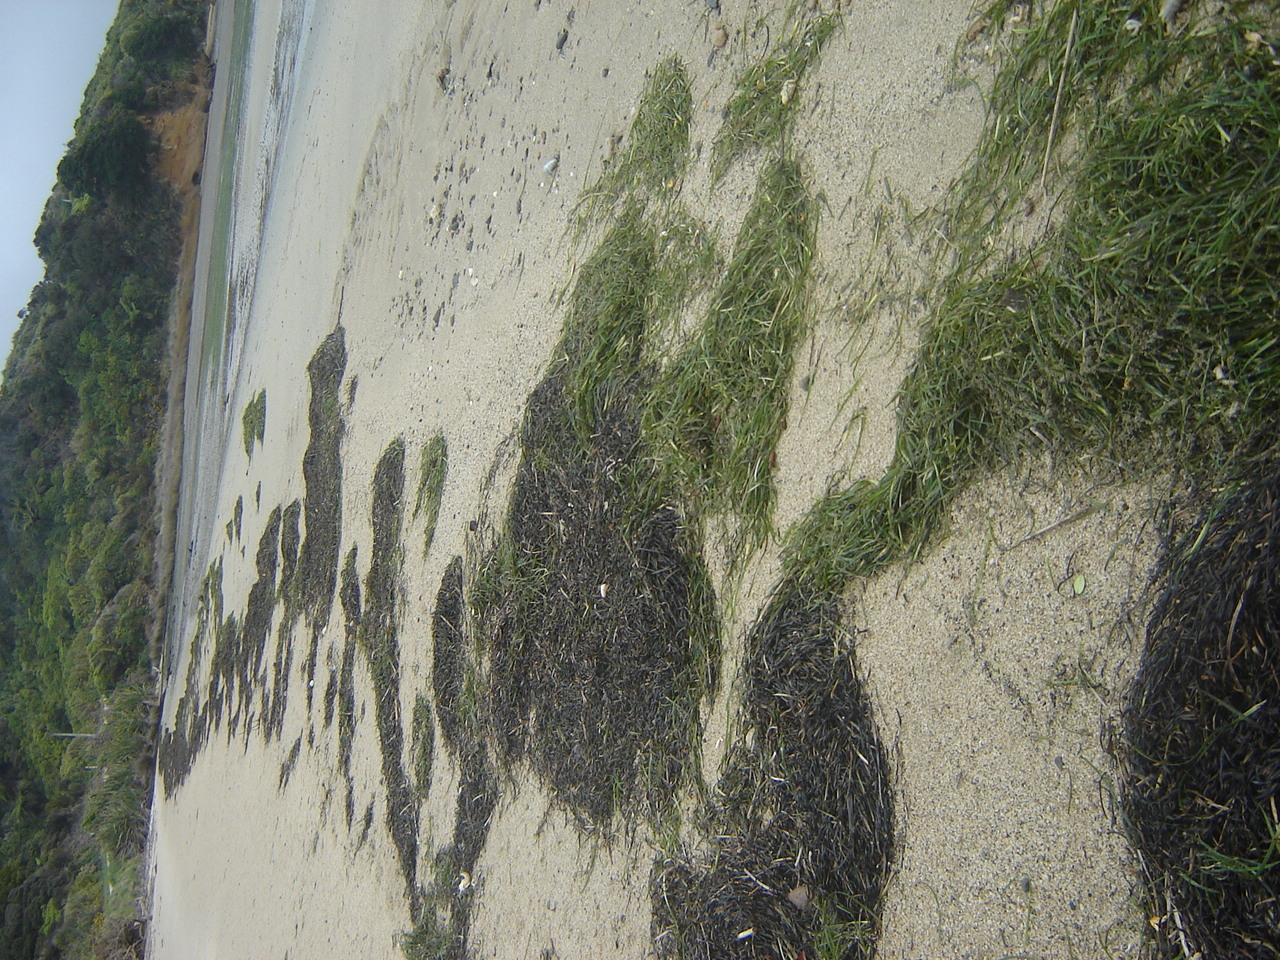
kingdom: Plantae
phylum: Tracheophyta
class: Liliopsida
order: Alismatales
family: Zosteraceae
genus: Zostera
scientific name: Zostera novazelandica
